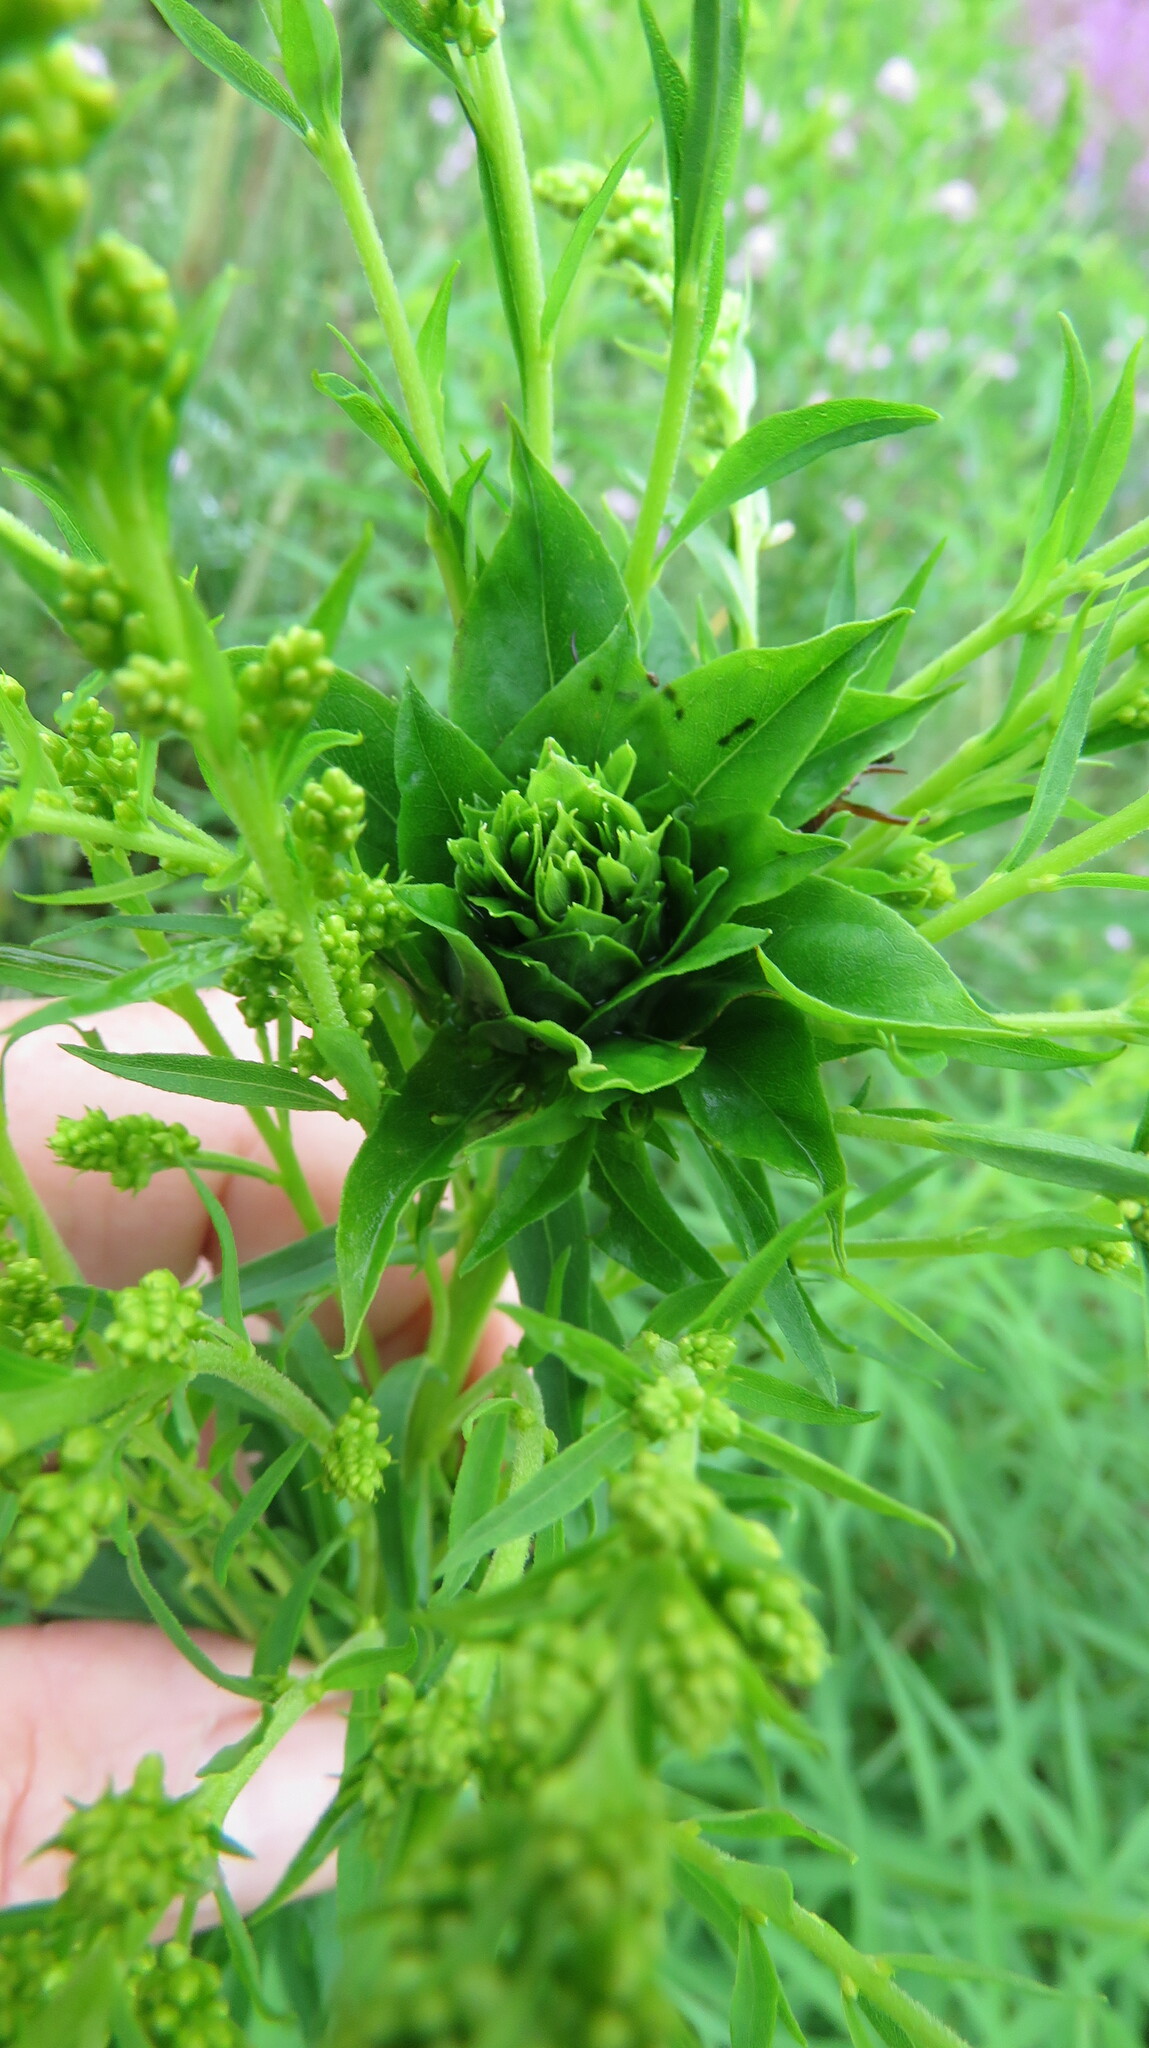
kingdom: Animalia
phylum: Arthropoda
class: Insecta
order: Diptera
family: Cecidomyiidae
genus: Rhopalomyia
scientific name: Rhopalomyia solidaginis
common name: Goldenrod bunch gall midge
